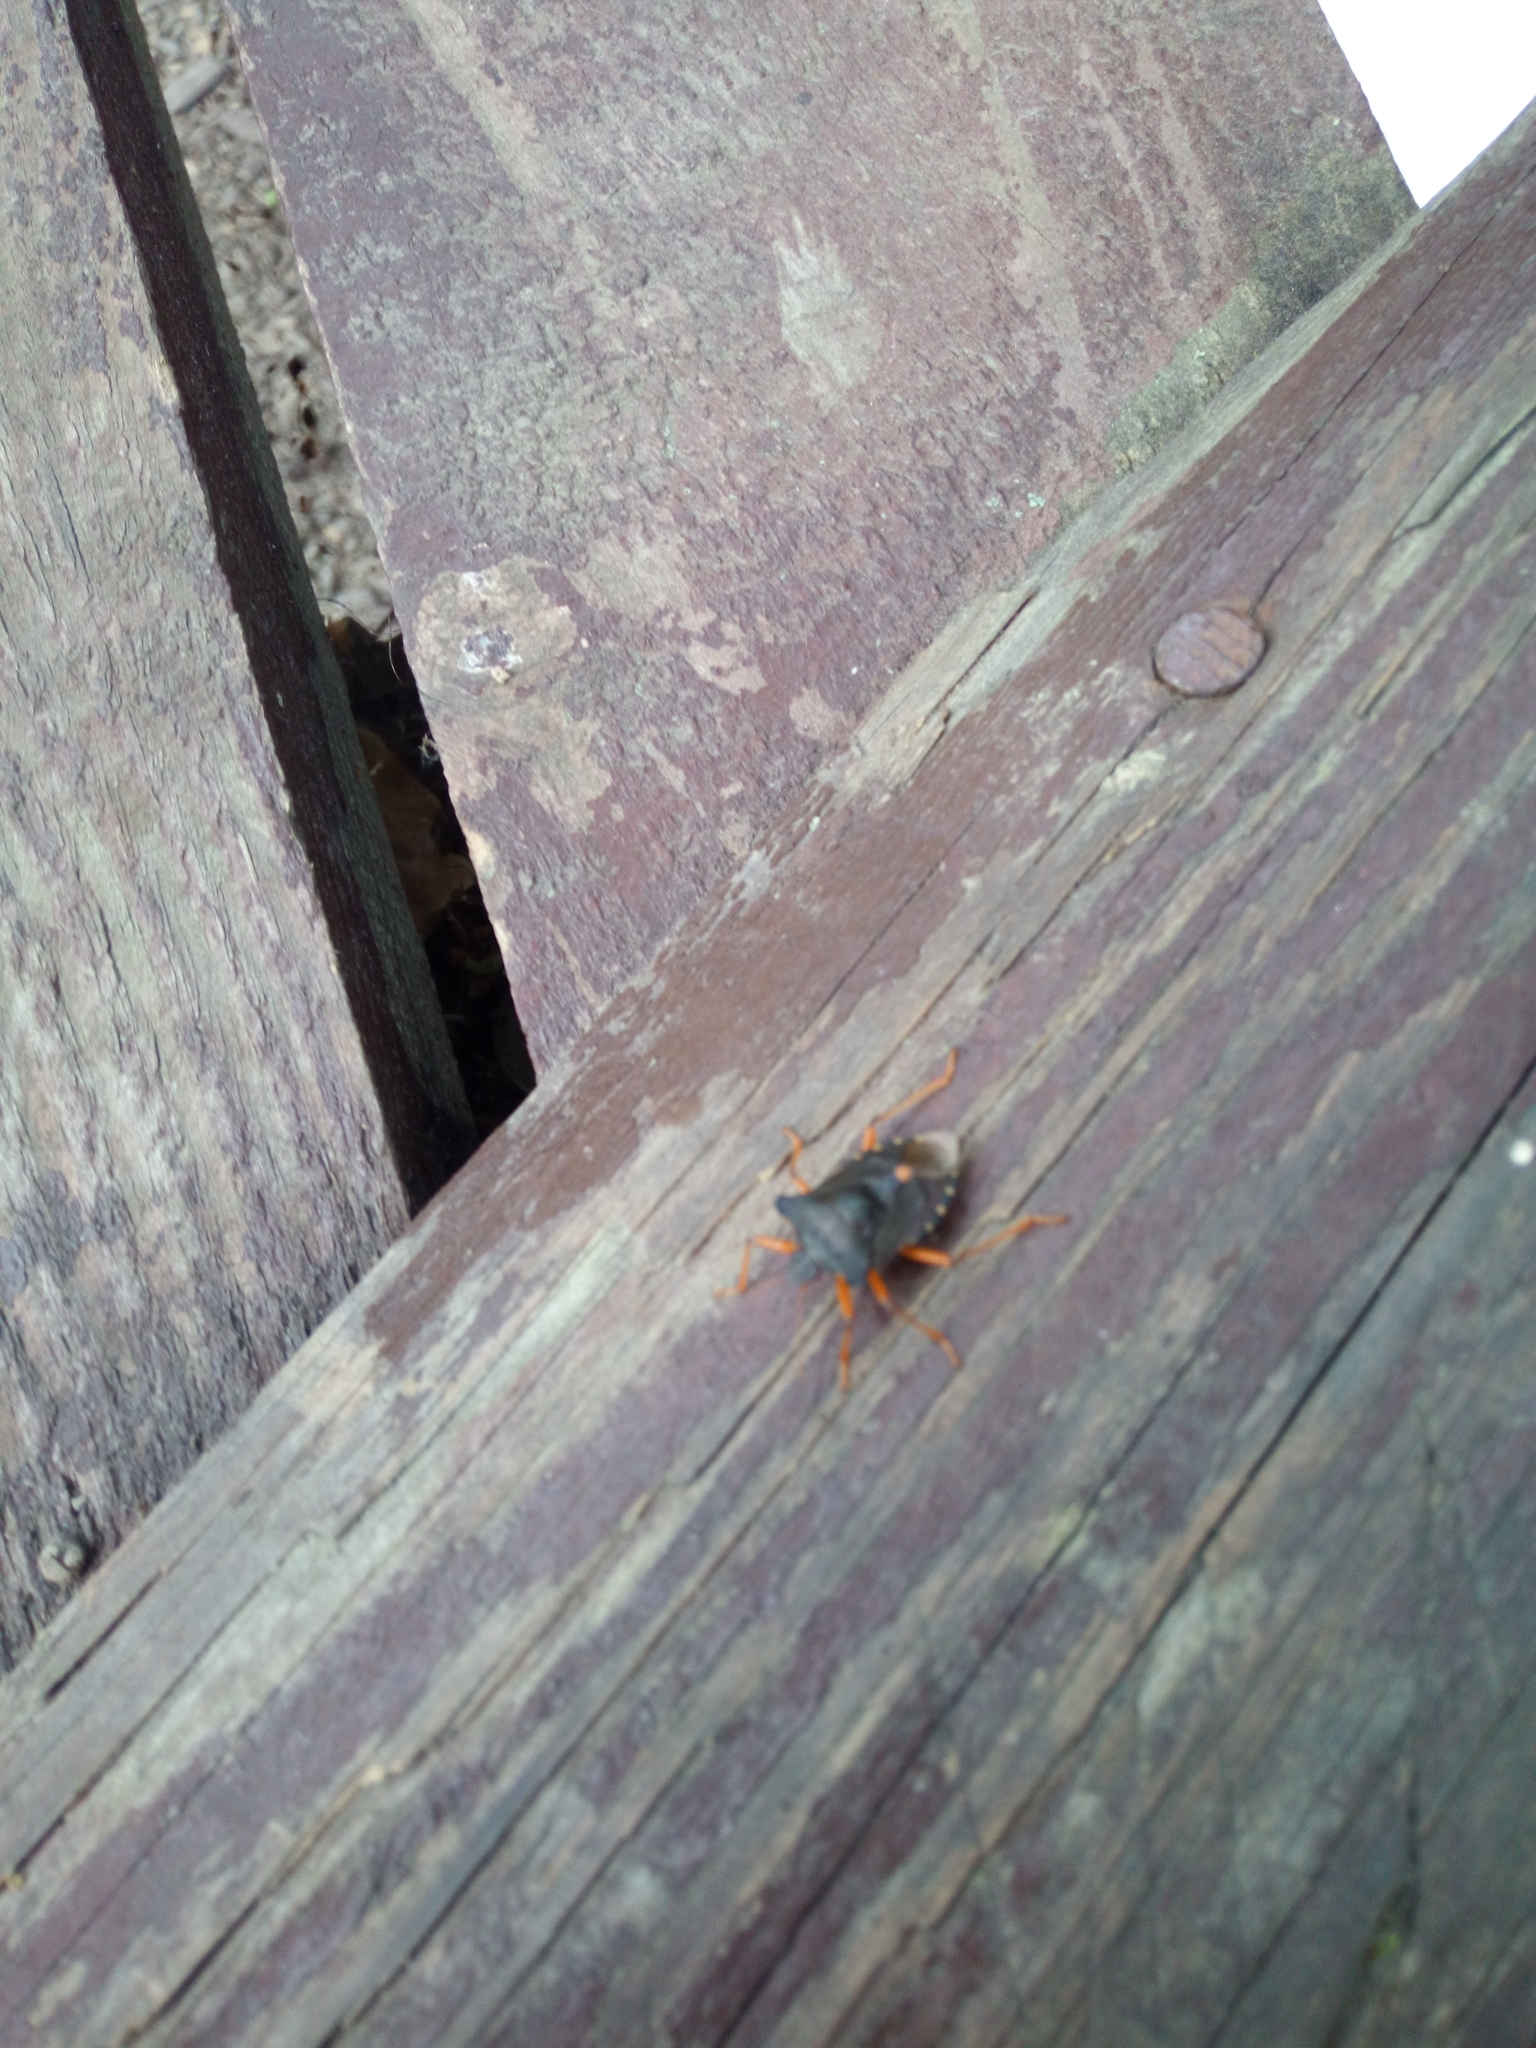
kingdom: Animalia
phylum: Arthropoda
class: Insecta
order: Hemiptera
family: Pentatomidae
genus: Pentatoma
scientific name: Pentatoma rufipes
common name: Forest bug
